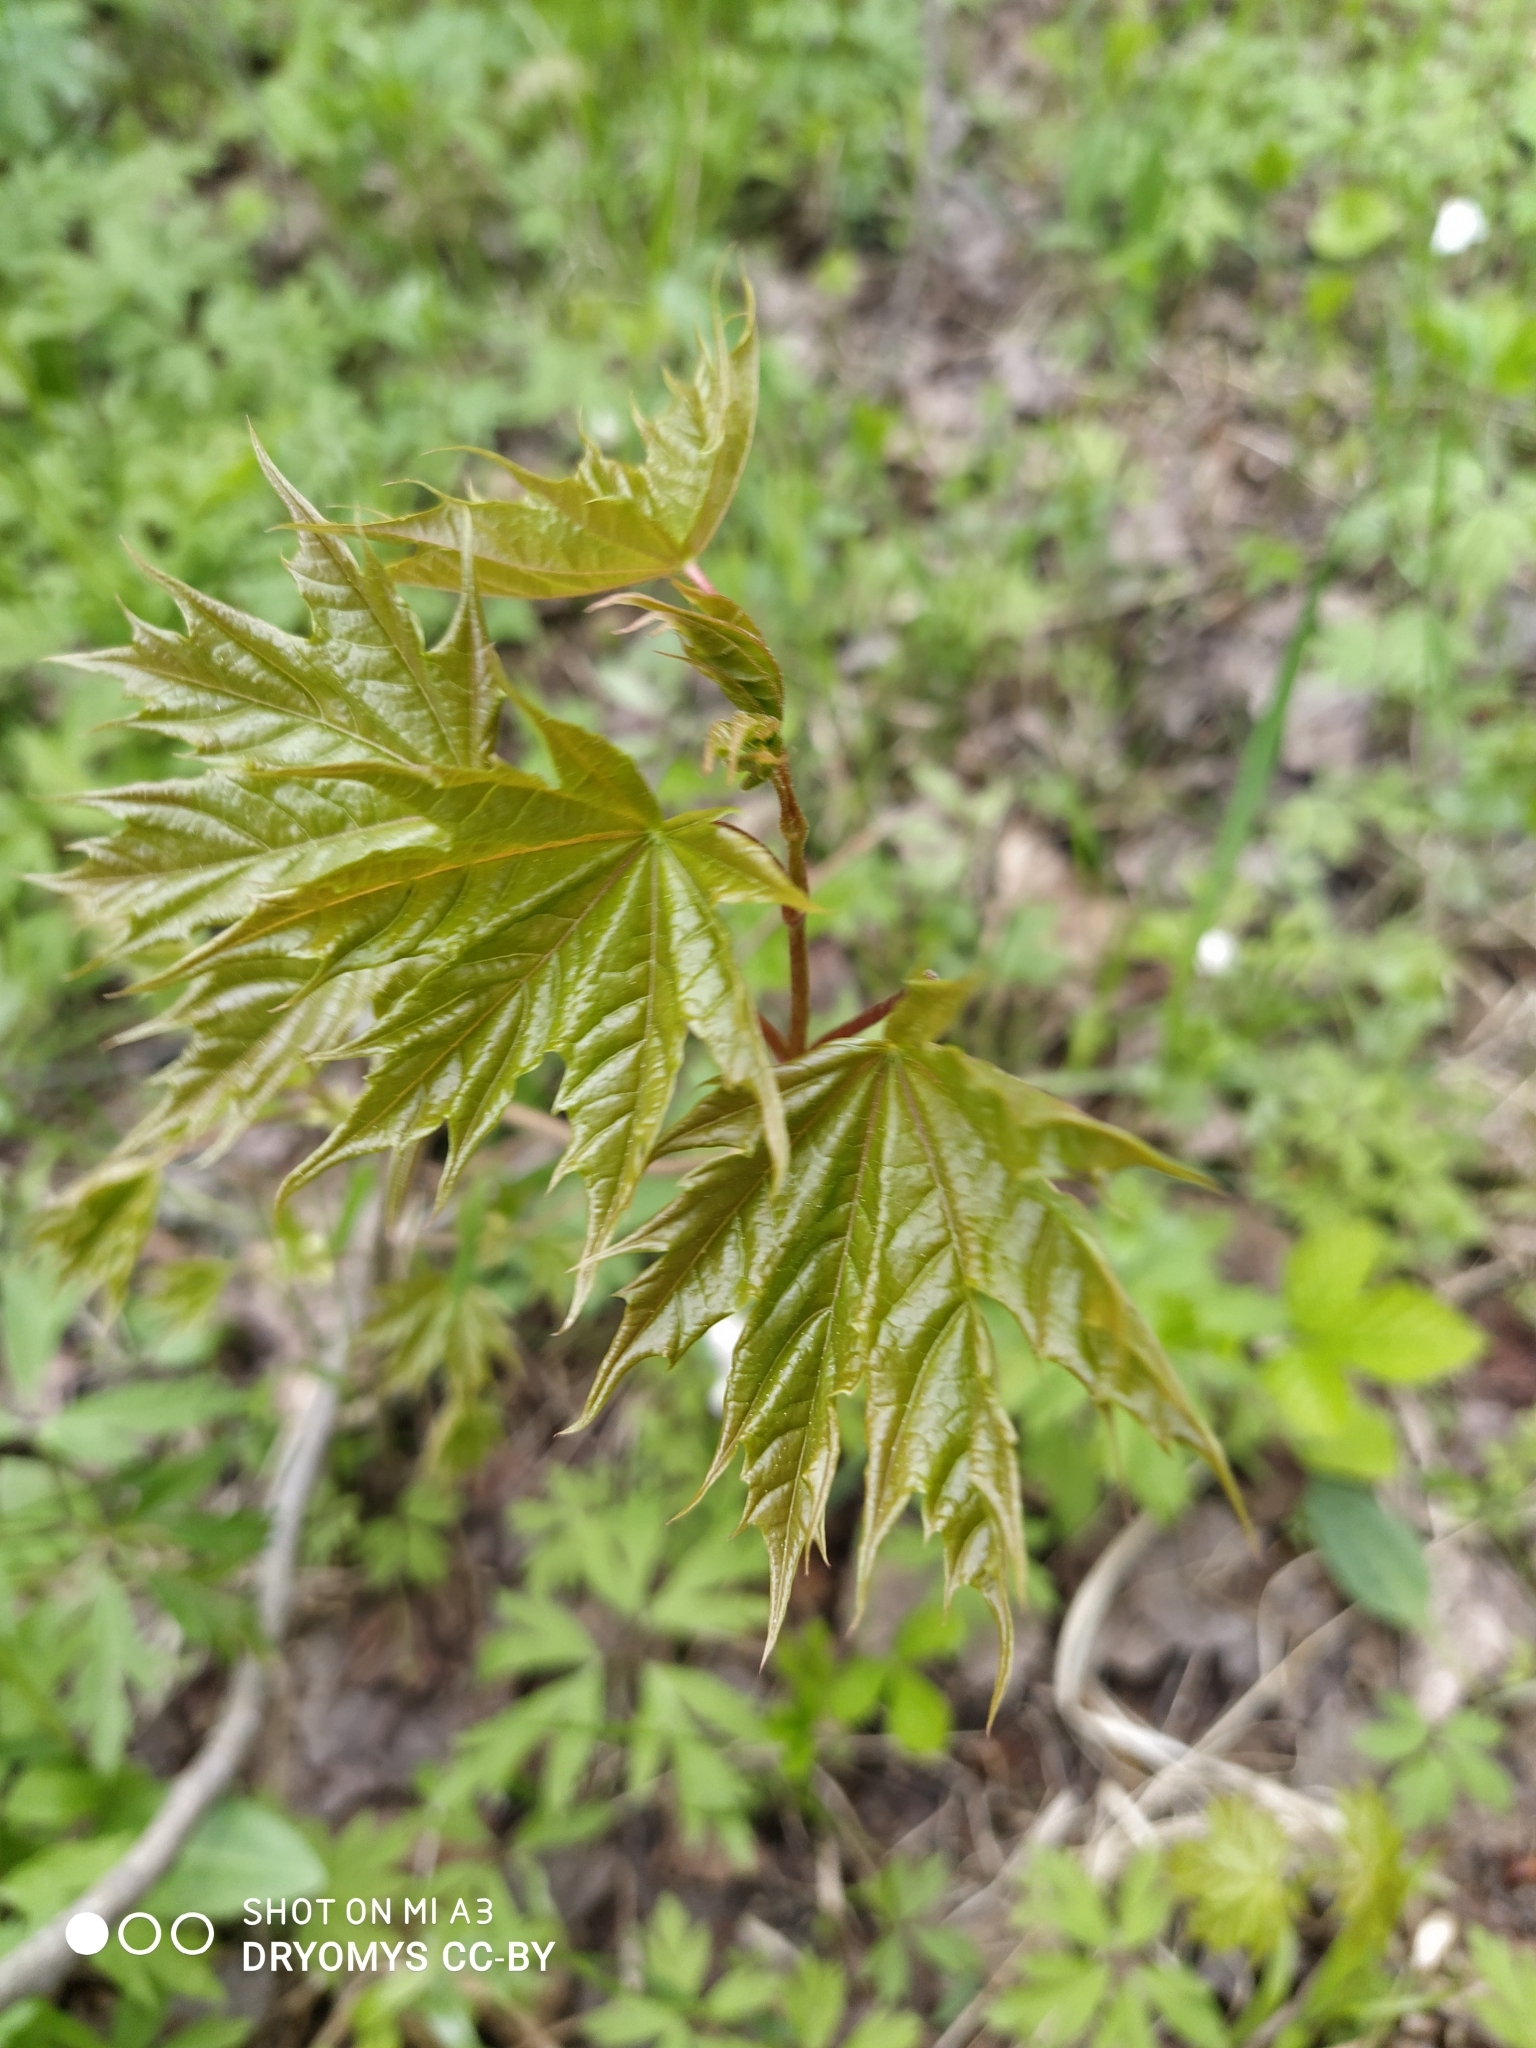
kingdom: Plantae
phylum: Tracheophyta
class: Magnoliopsida
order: Sapindales
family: Sapindaceae
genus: Acer
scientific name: Acer platanoides
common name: Norway maple
